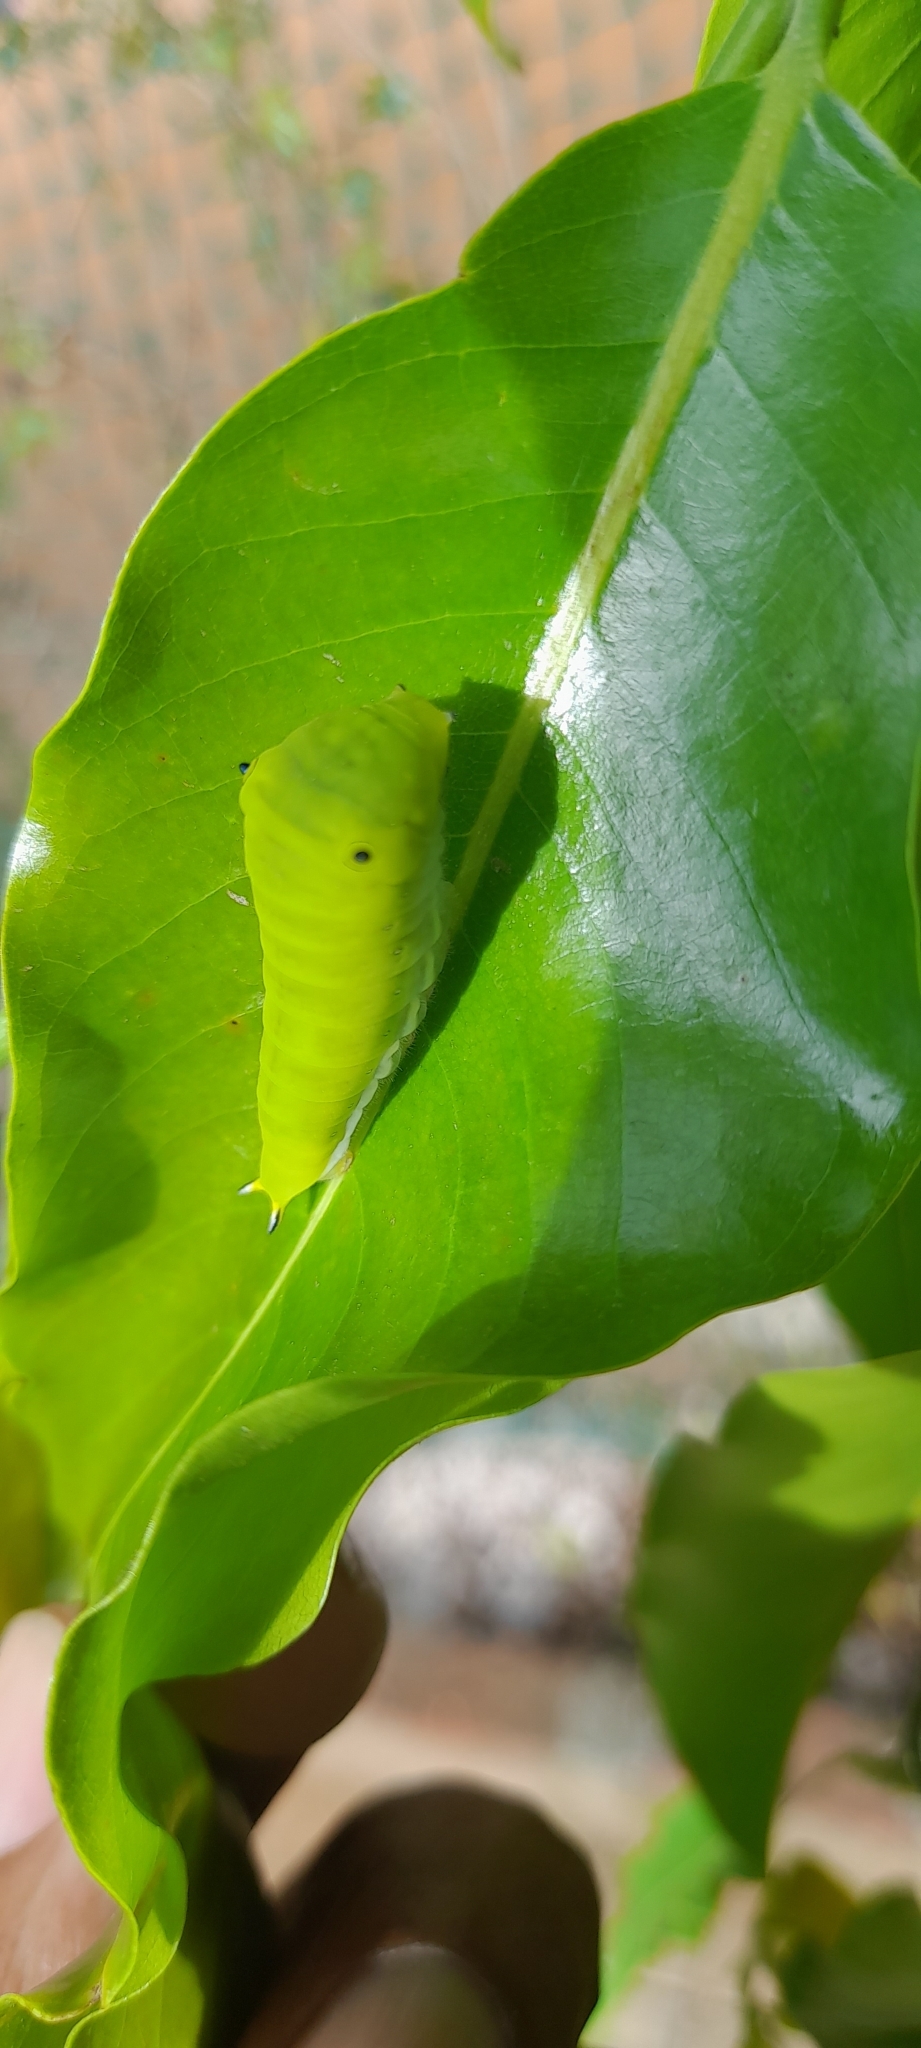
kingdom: Animalia
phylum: Arthropoda
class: Insecta
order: Lepidoptera
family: Papilionidae
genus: Graphium
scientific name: Graphium doson
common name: Common jay
